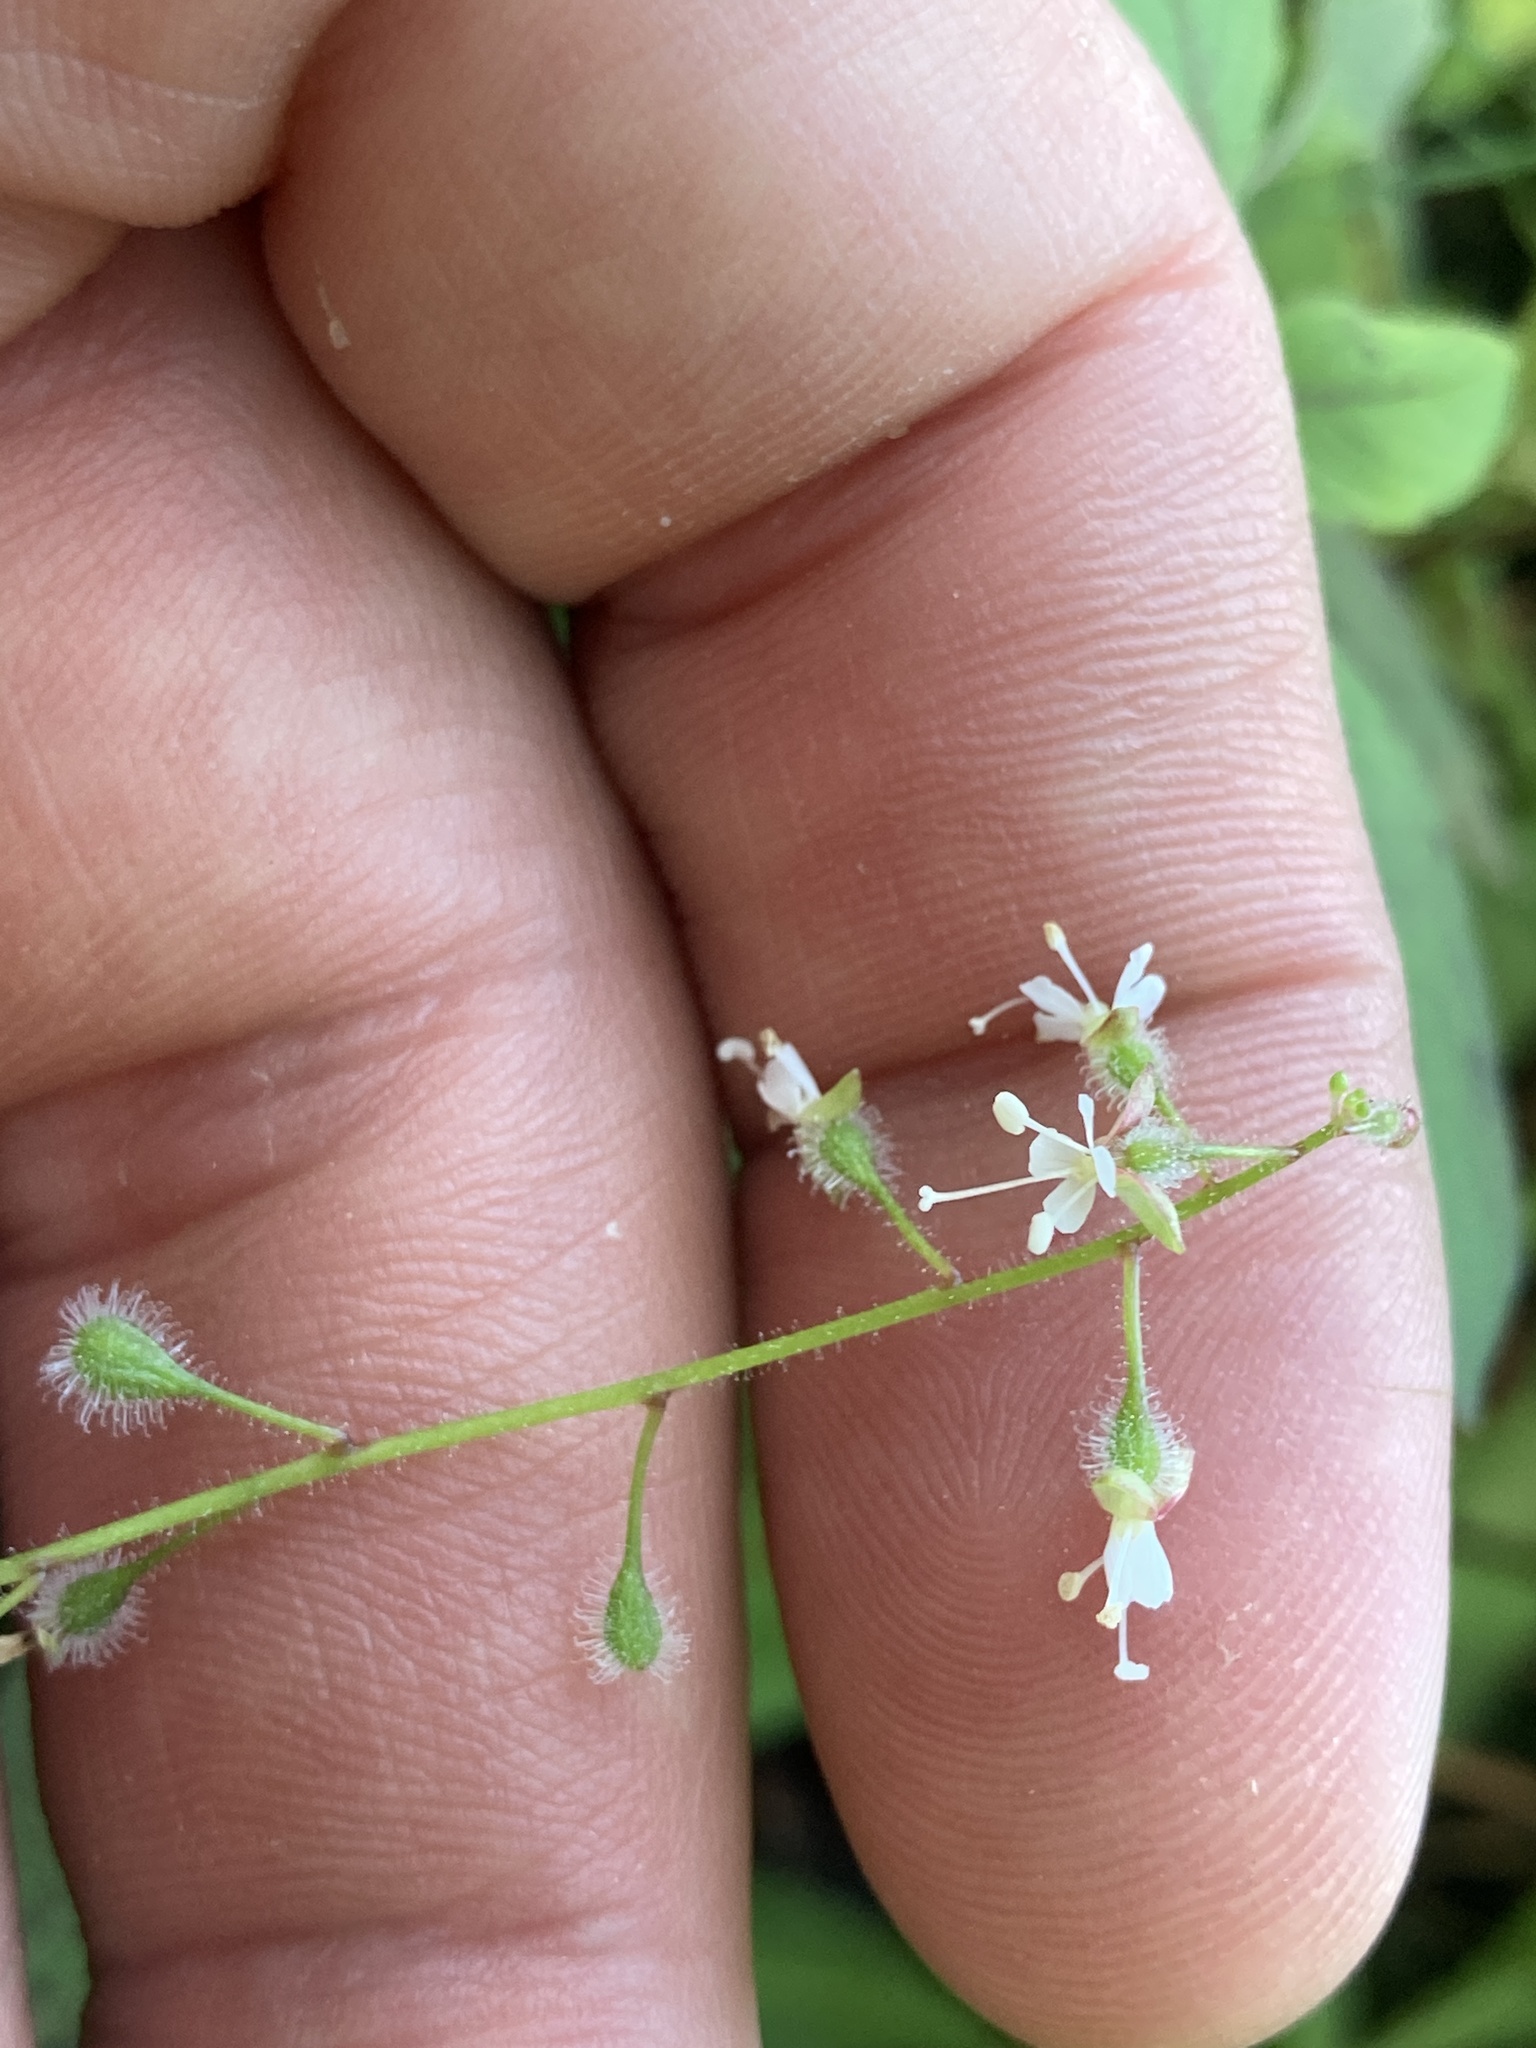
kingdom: Plantae
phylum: Tracheophyta
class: Magnoliopsida
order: Myrtales
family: Onagraceae
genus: Circaea
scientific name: Circaea canadensis
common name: Broad-leaved enchanter's nightshade
